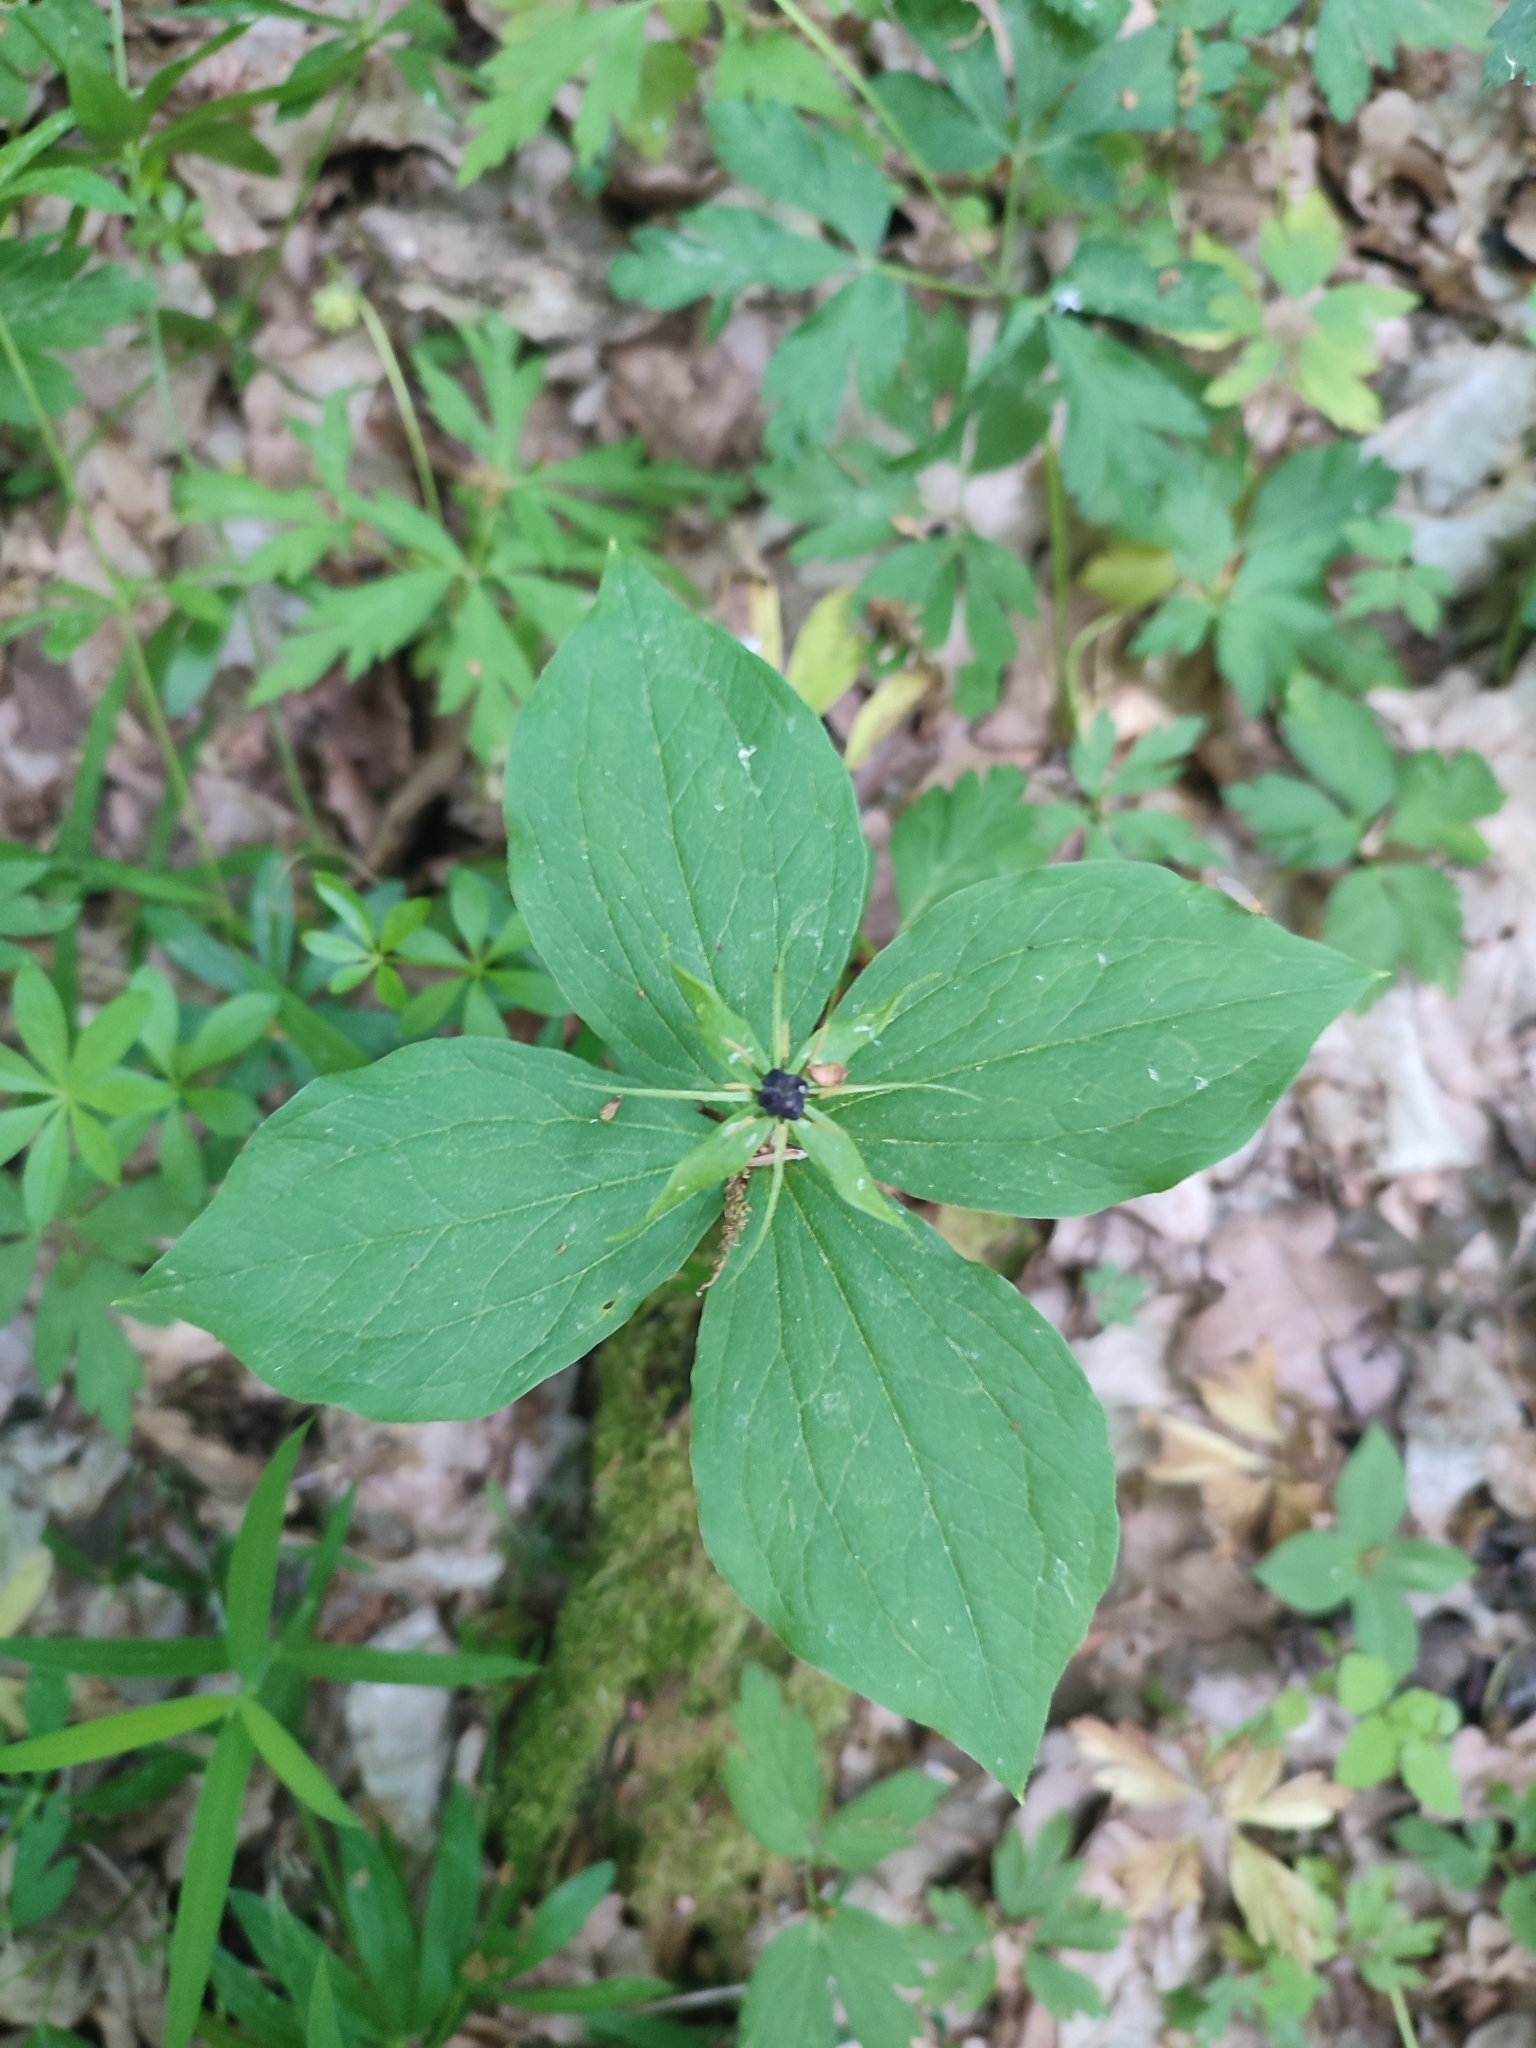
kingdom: Plantae
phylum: Tracheophyta
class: Liliopsida
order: Liliales
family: Melanthiaceae
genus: Paris
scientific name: Paris quadrifolia
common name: Herb-paris
